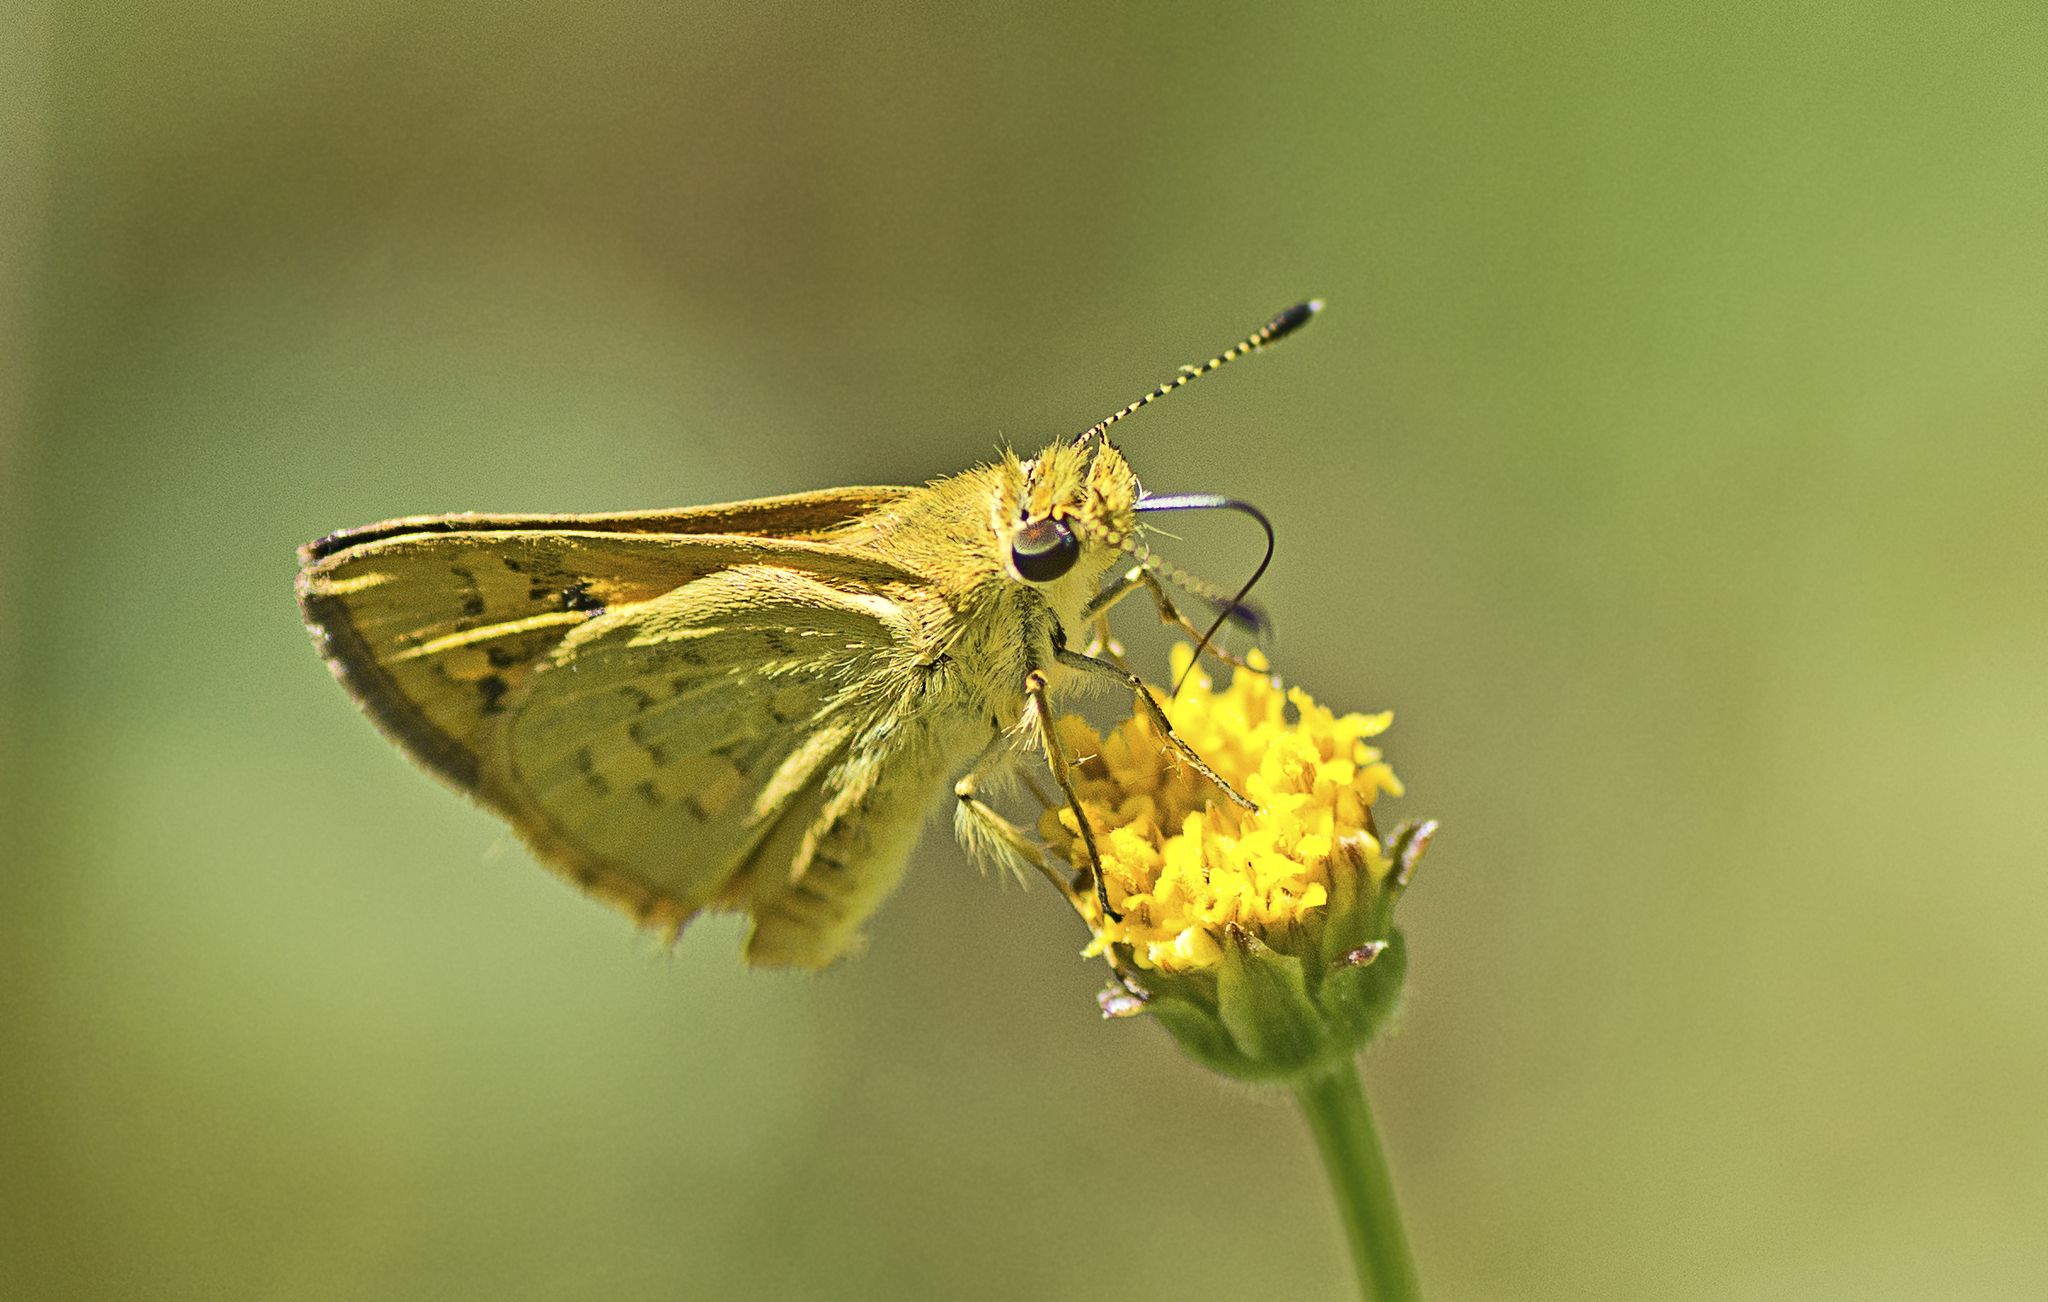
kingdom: Animalia
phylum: Arthropoda
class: Insecta
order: Lepidoptera
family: Hesperiidae
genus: Ocybadistes
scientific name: Ocybadistes walkeri
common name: Yellow-banded dart
